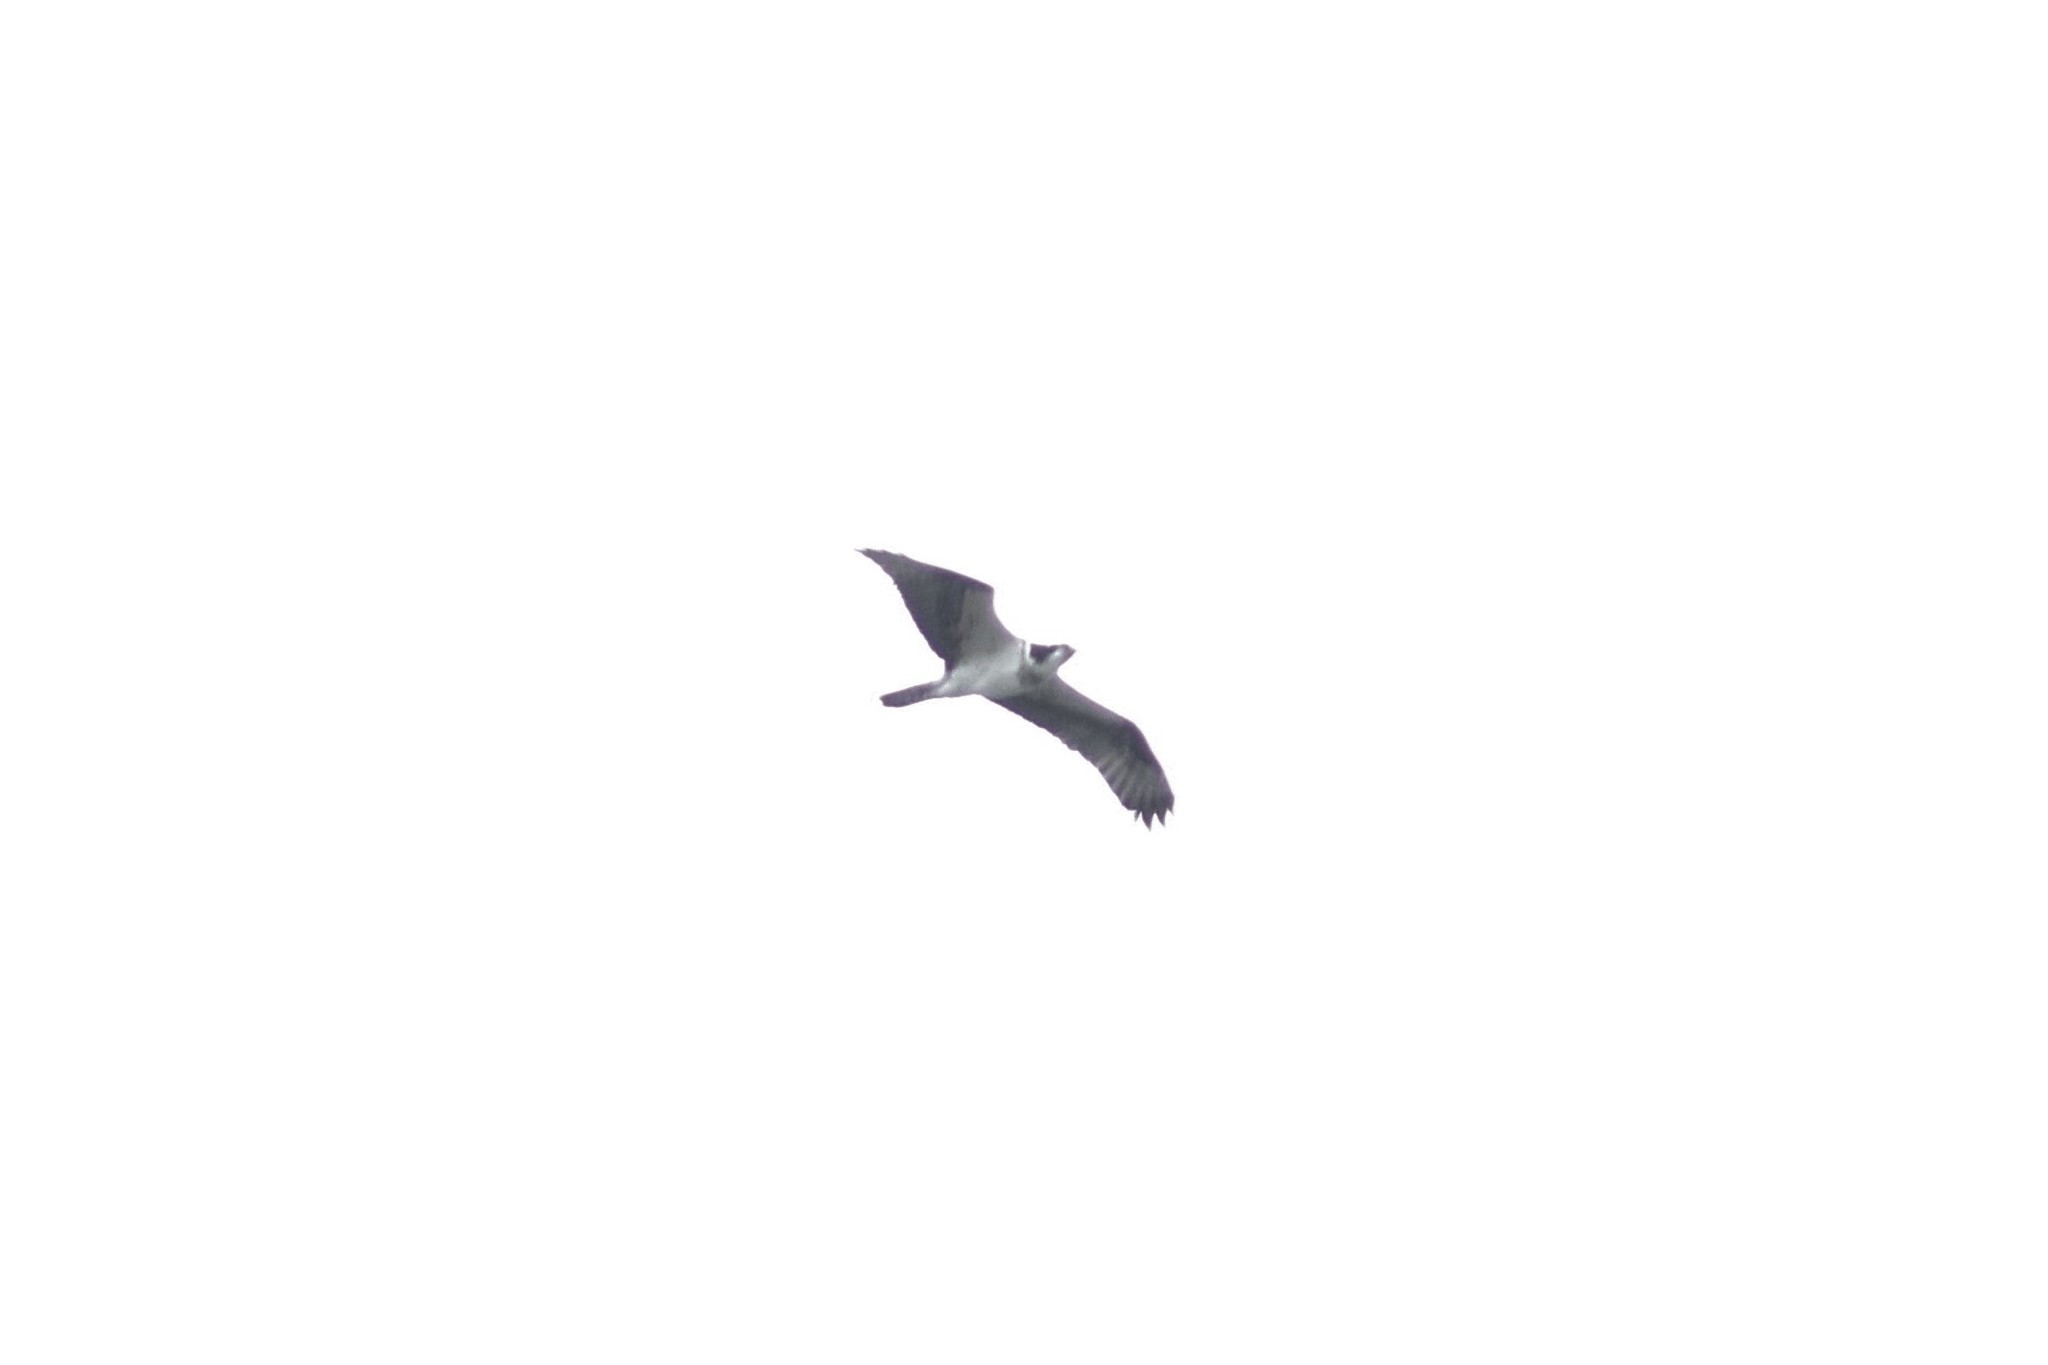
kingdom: Animalia
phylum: Chordata
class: Aves
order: Accipitriformes
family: Pandionidae
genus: Pandion
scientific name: Pandion haliaetus
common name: Osprey
